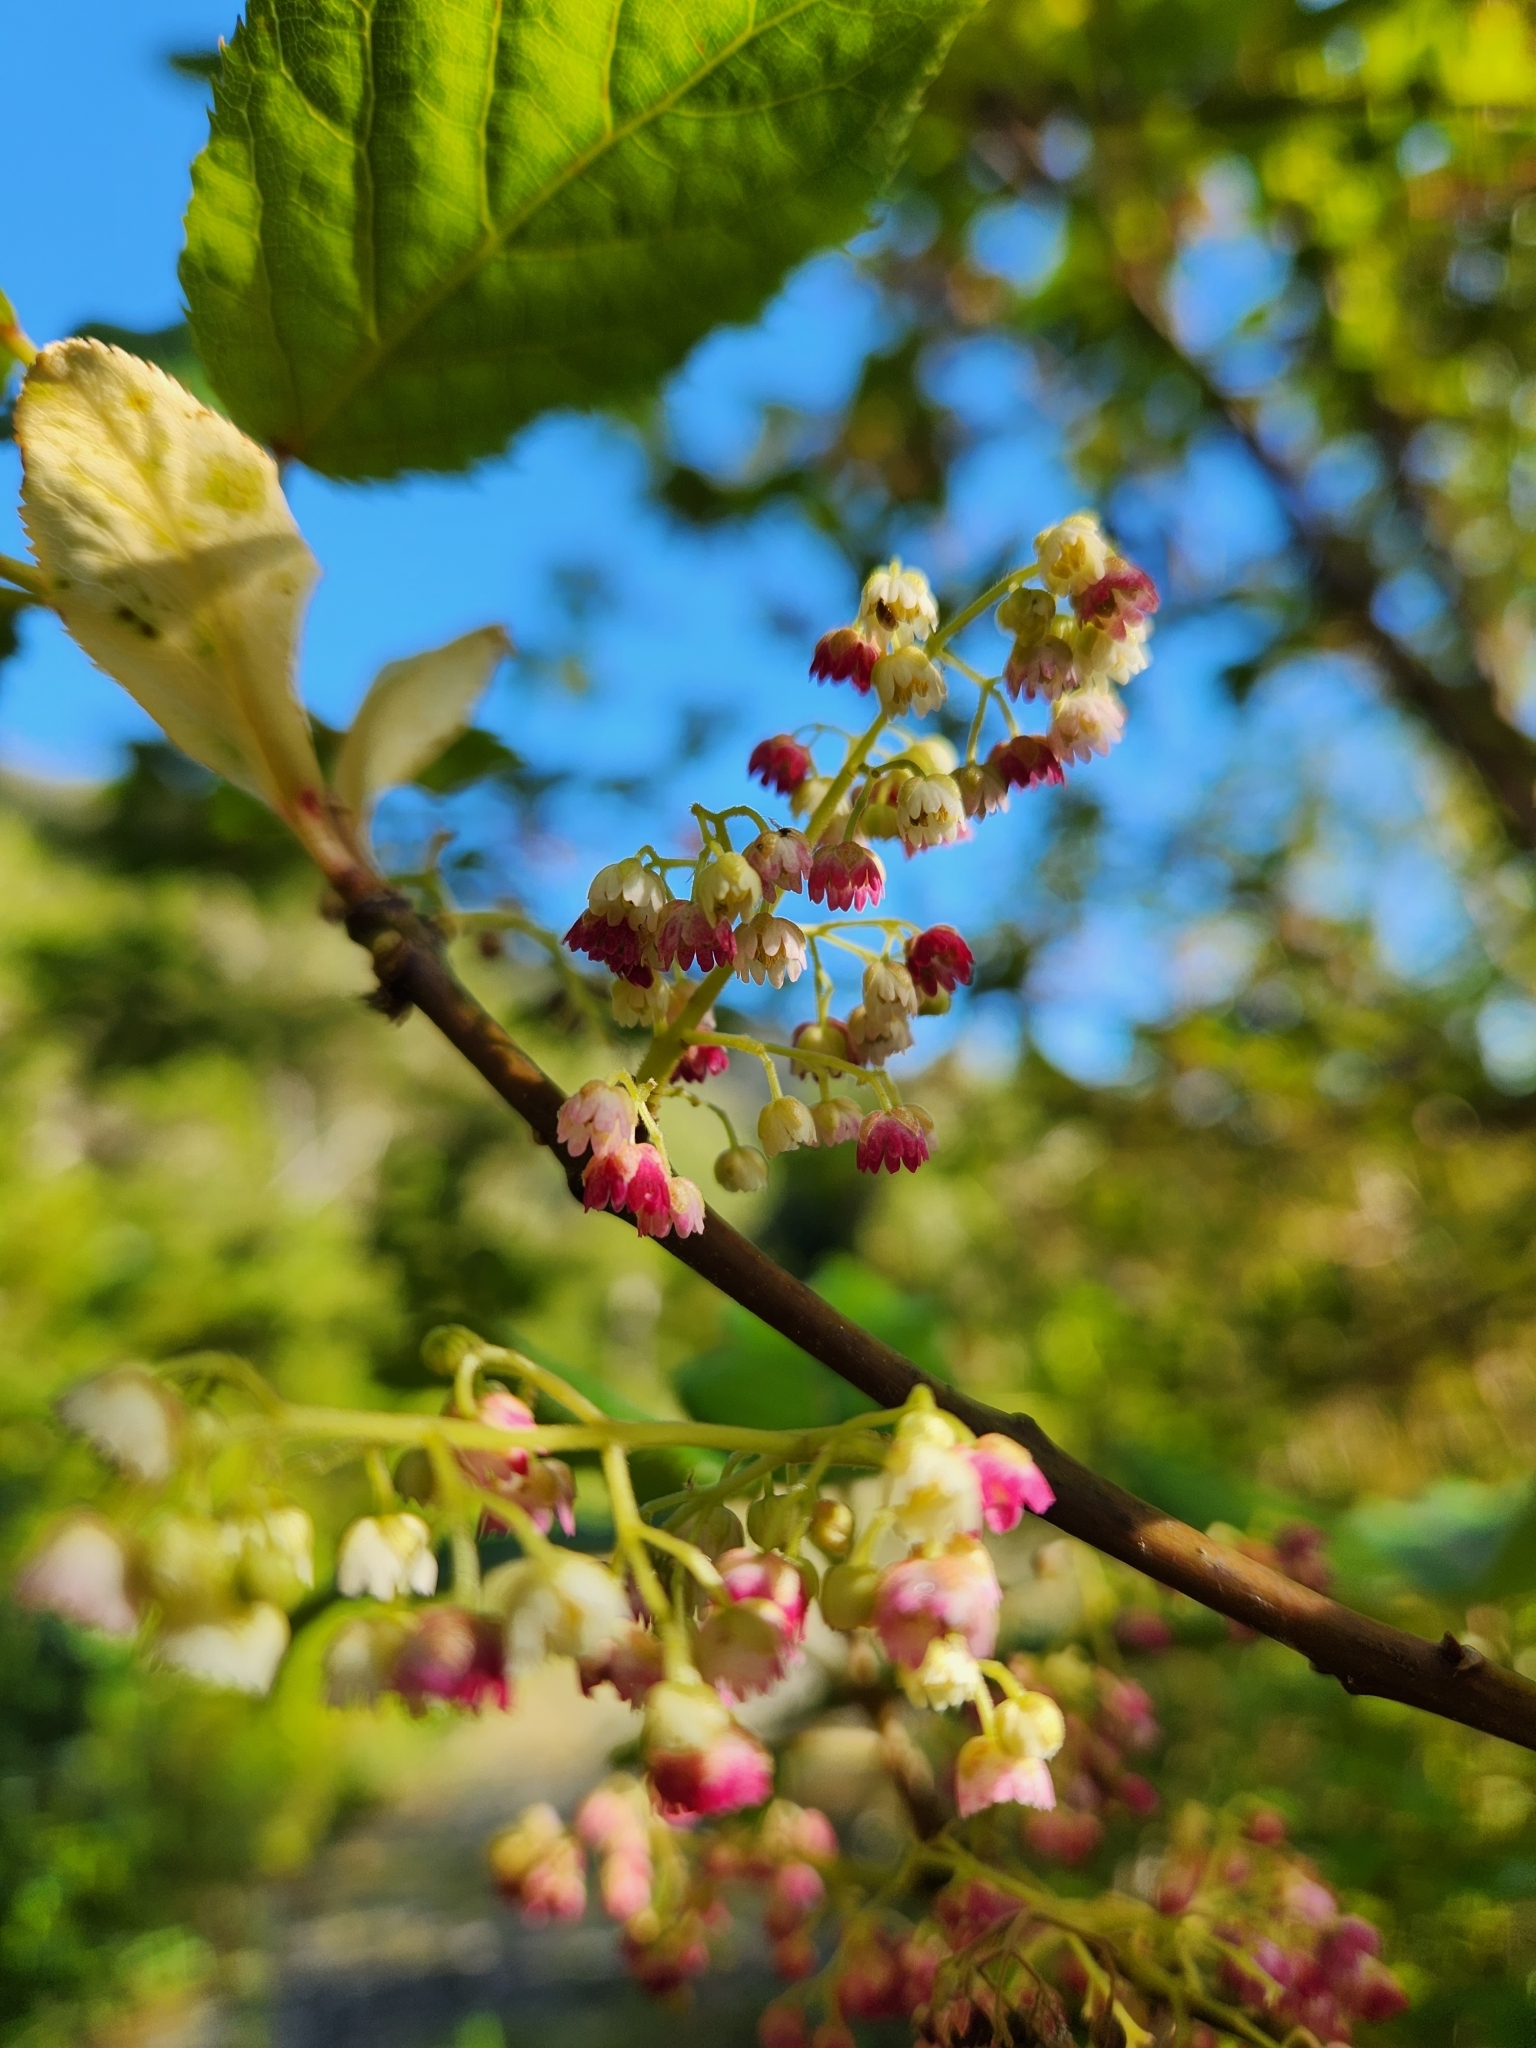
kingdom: Plantae
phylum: Tracheophyta
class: Magnoliopsida
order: Oxalidales
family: Elaeocarpaceae
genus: Aristotelia
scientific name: Aristotelia serrata
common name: New zealand wineberry
